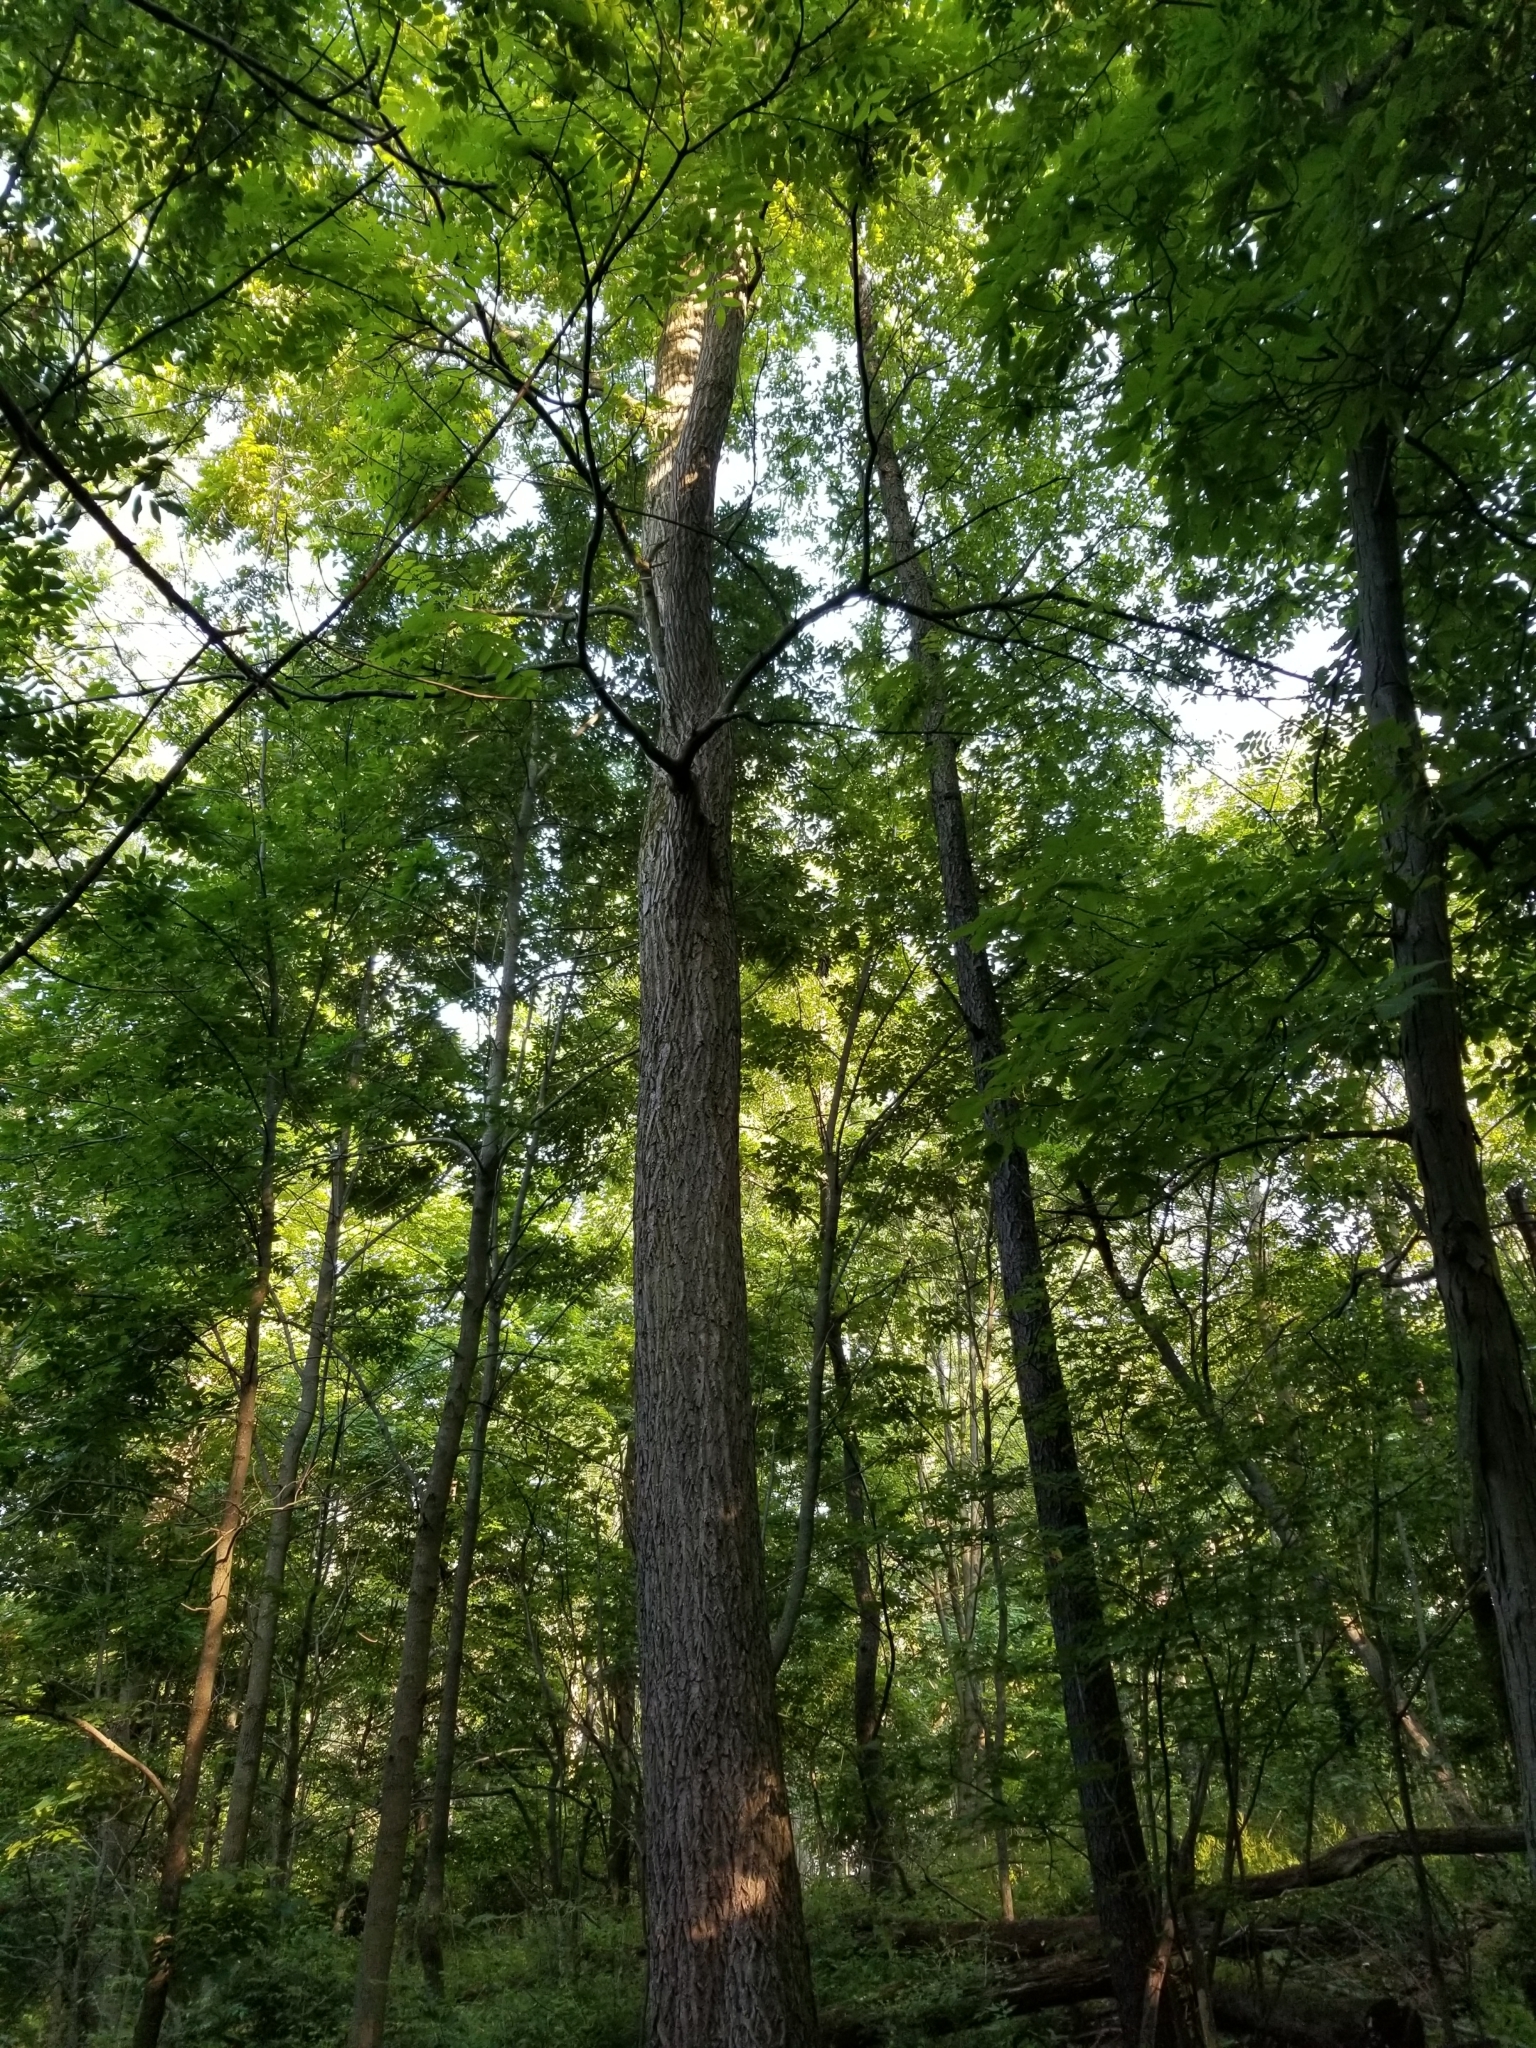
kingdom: Plantae
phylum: Tracheophyta
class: Magnoliopsida
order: Fagales
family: Juglandaceae
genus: Juglans
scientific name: Juglans cinerea
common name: Butternut
